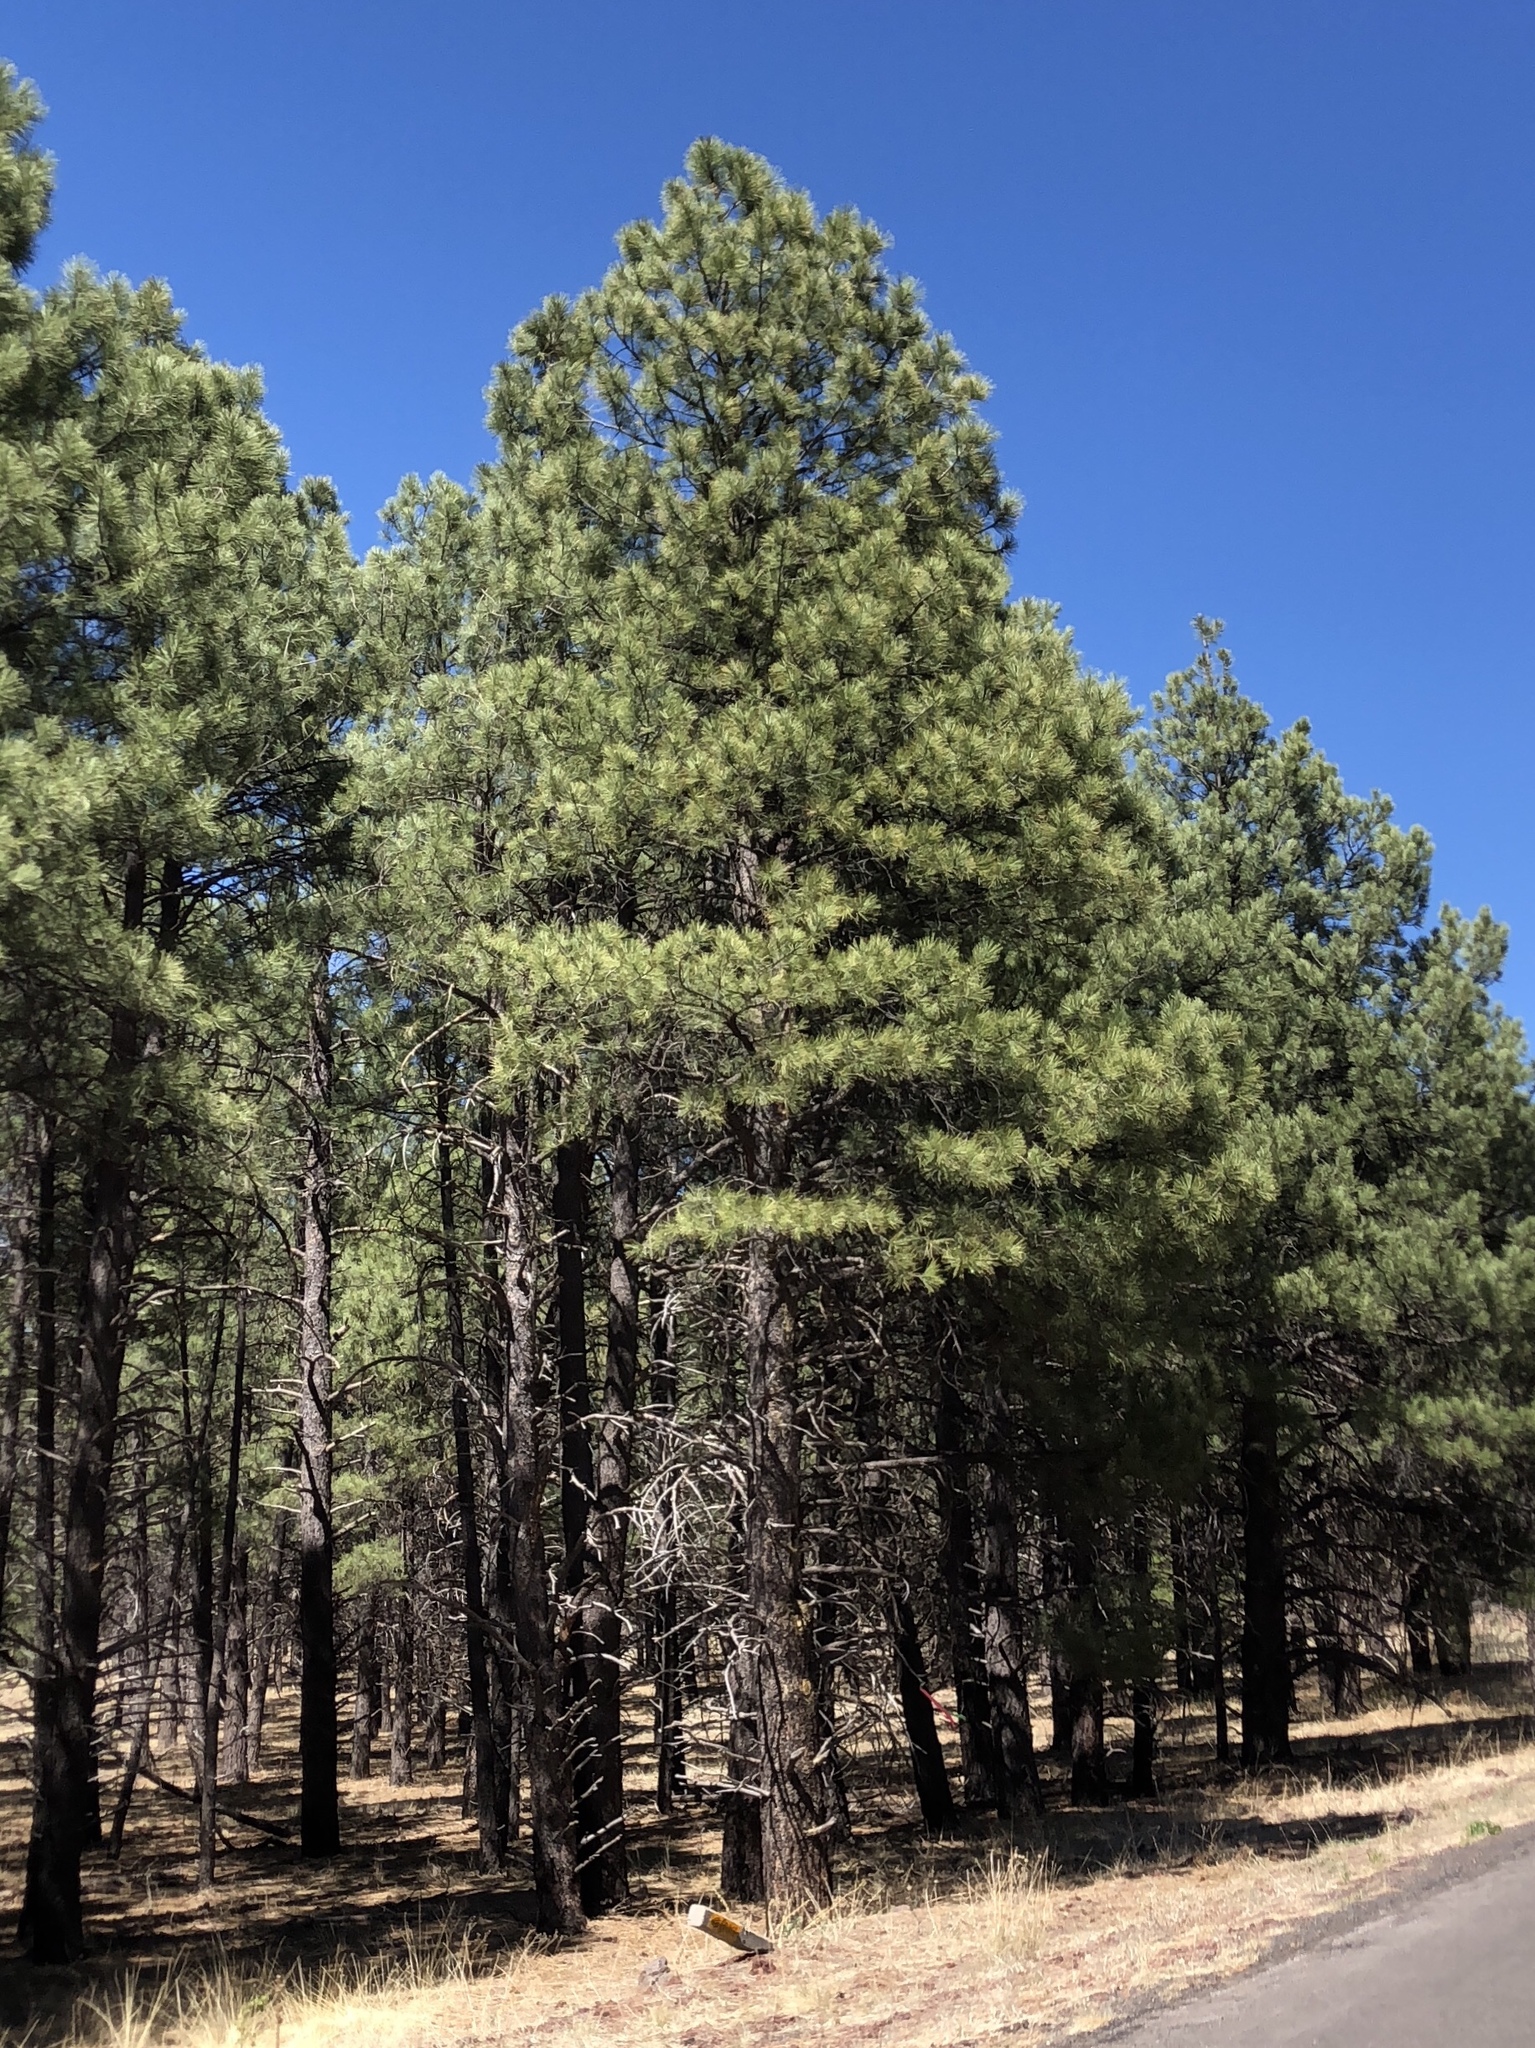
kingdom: Plantae
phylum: Tracheophyta
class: Pinopsida
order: Pinales
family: Pinaceae
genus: Pinus
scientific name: Pinus ponderosa
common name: Western yellow-pine
